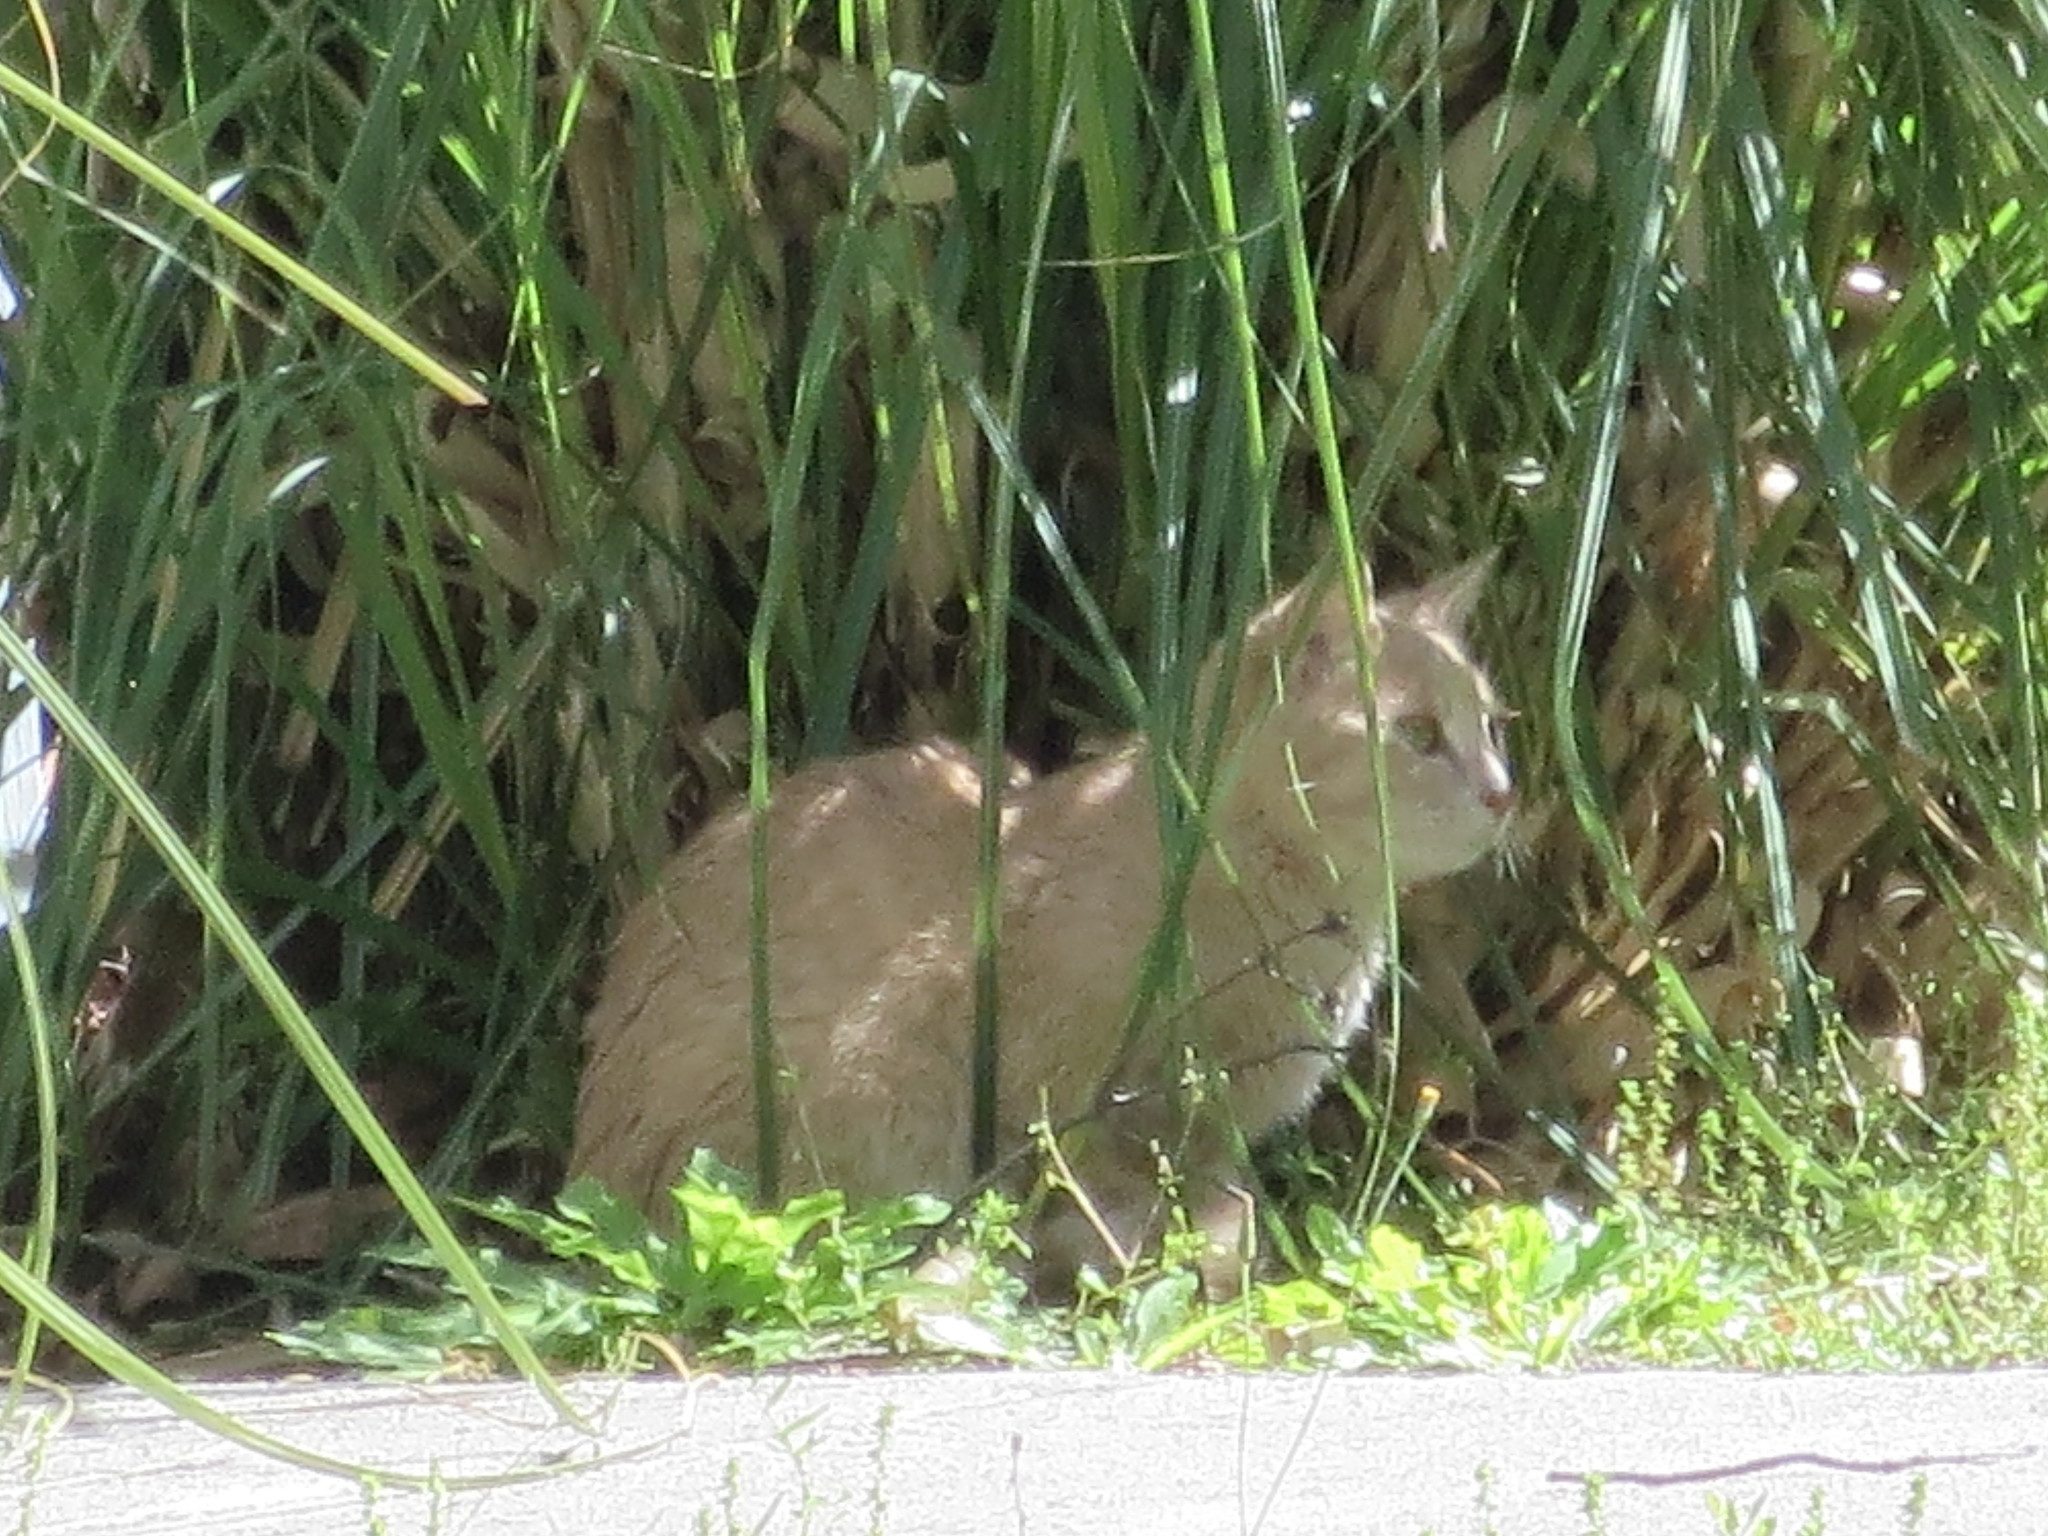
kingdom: Animalia
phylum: Chordata
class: Mammalia
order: Carnivora
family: Felidae
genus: Felis
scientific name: Felis catus
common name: Domestic cat
